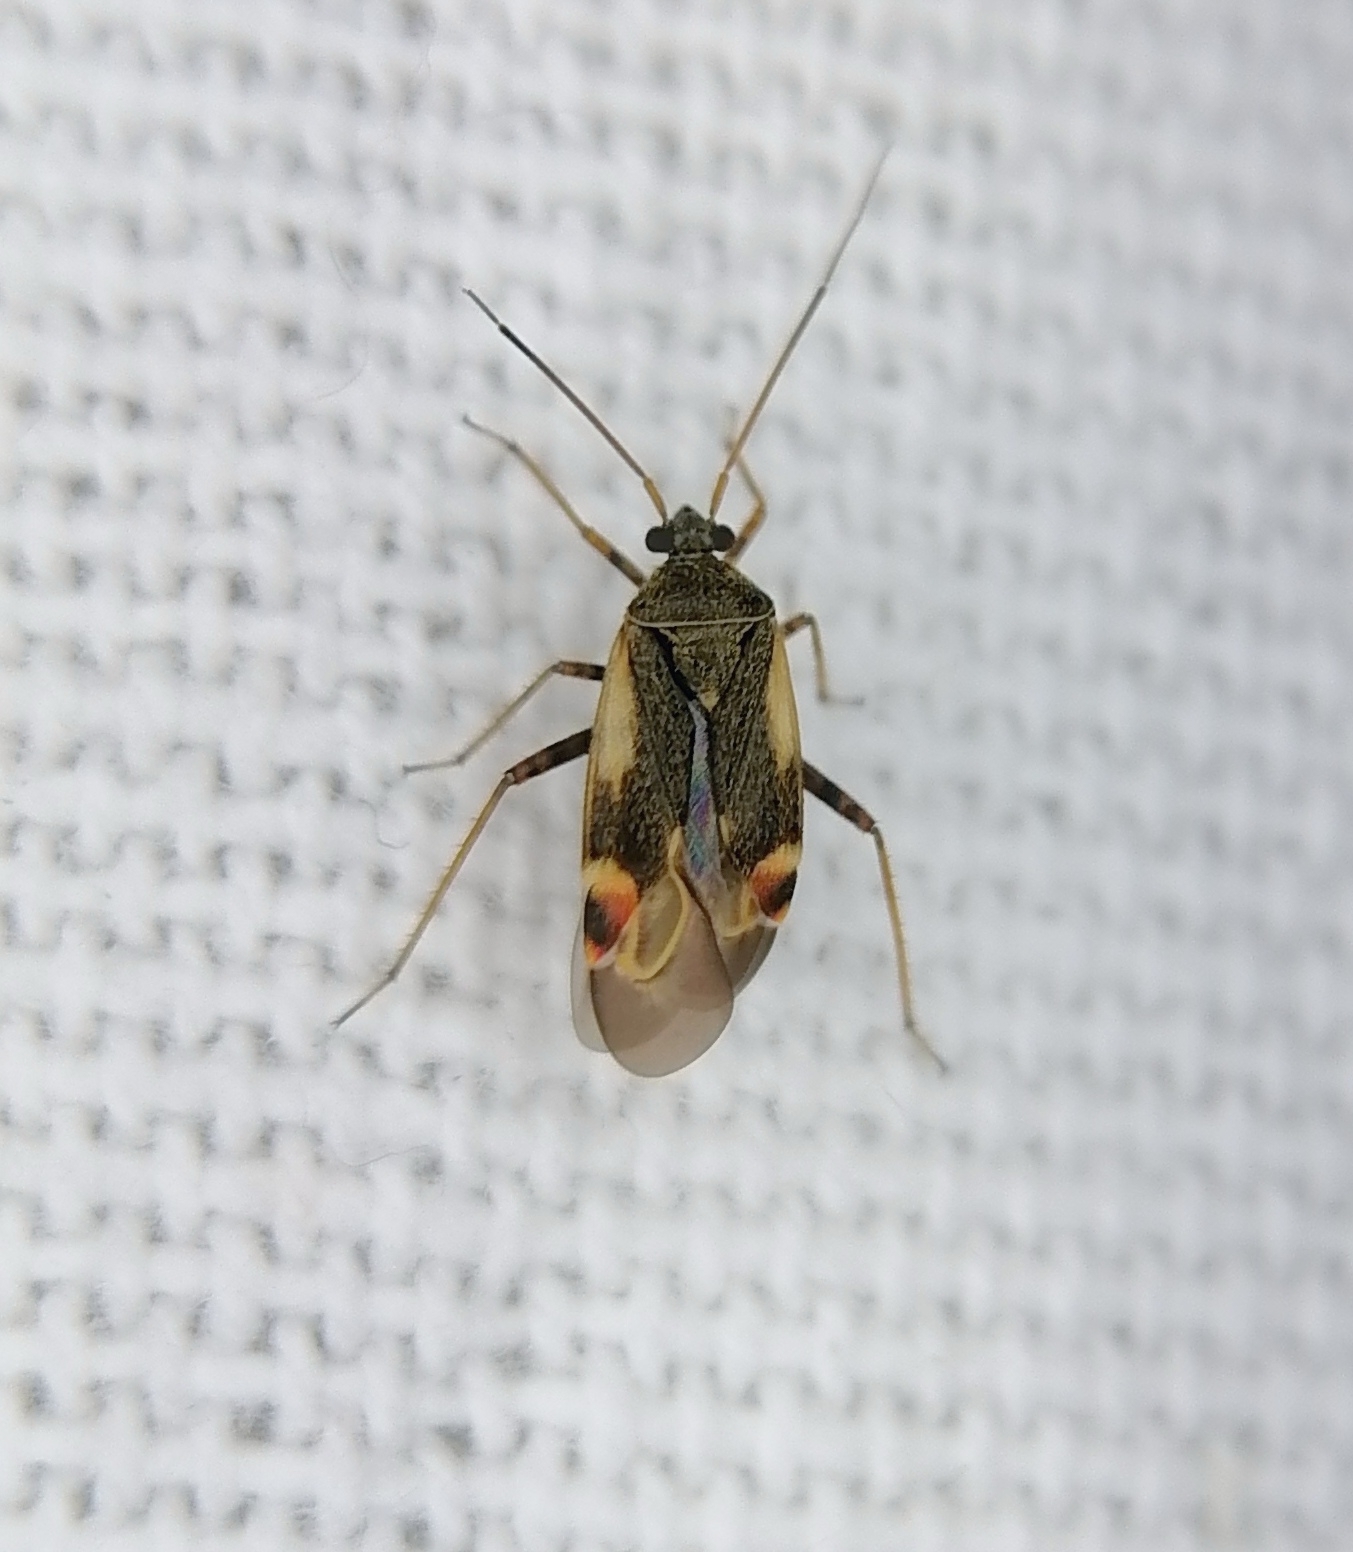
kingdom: Animalia
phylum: Arthropoda
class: Insecta
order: Hemiptera
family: Miridae
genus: Polymerus
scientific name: Polymerus palustris
